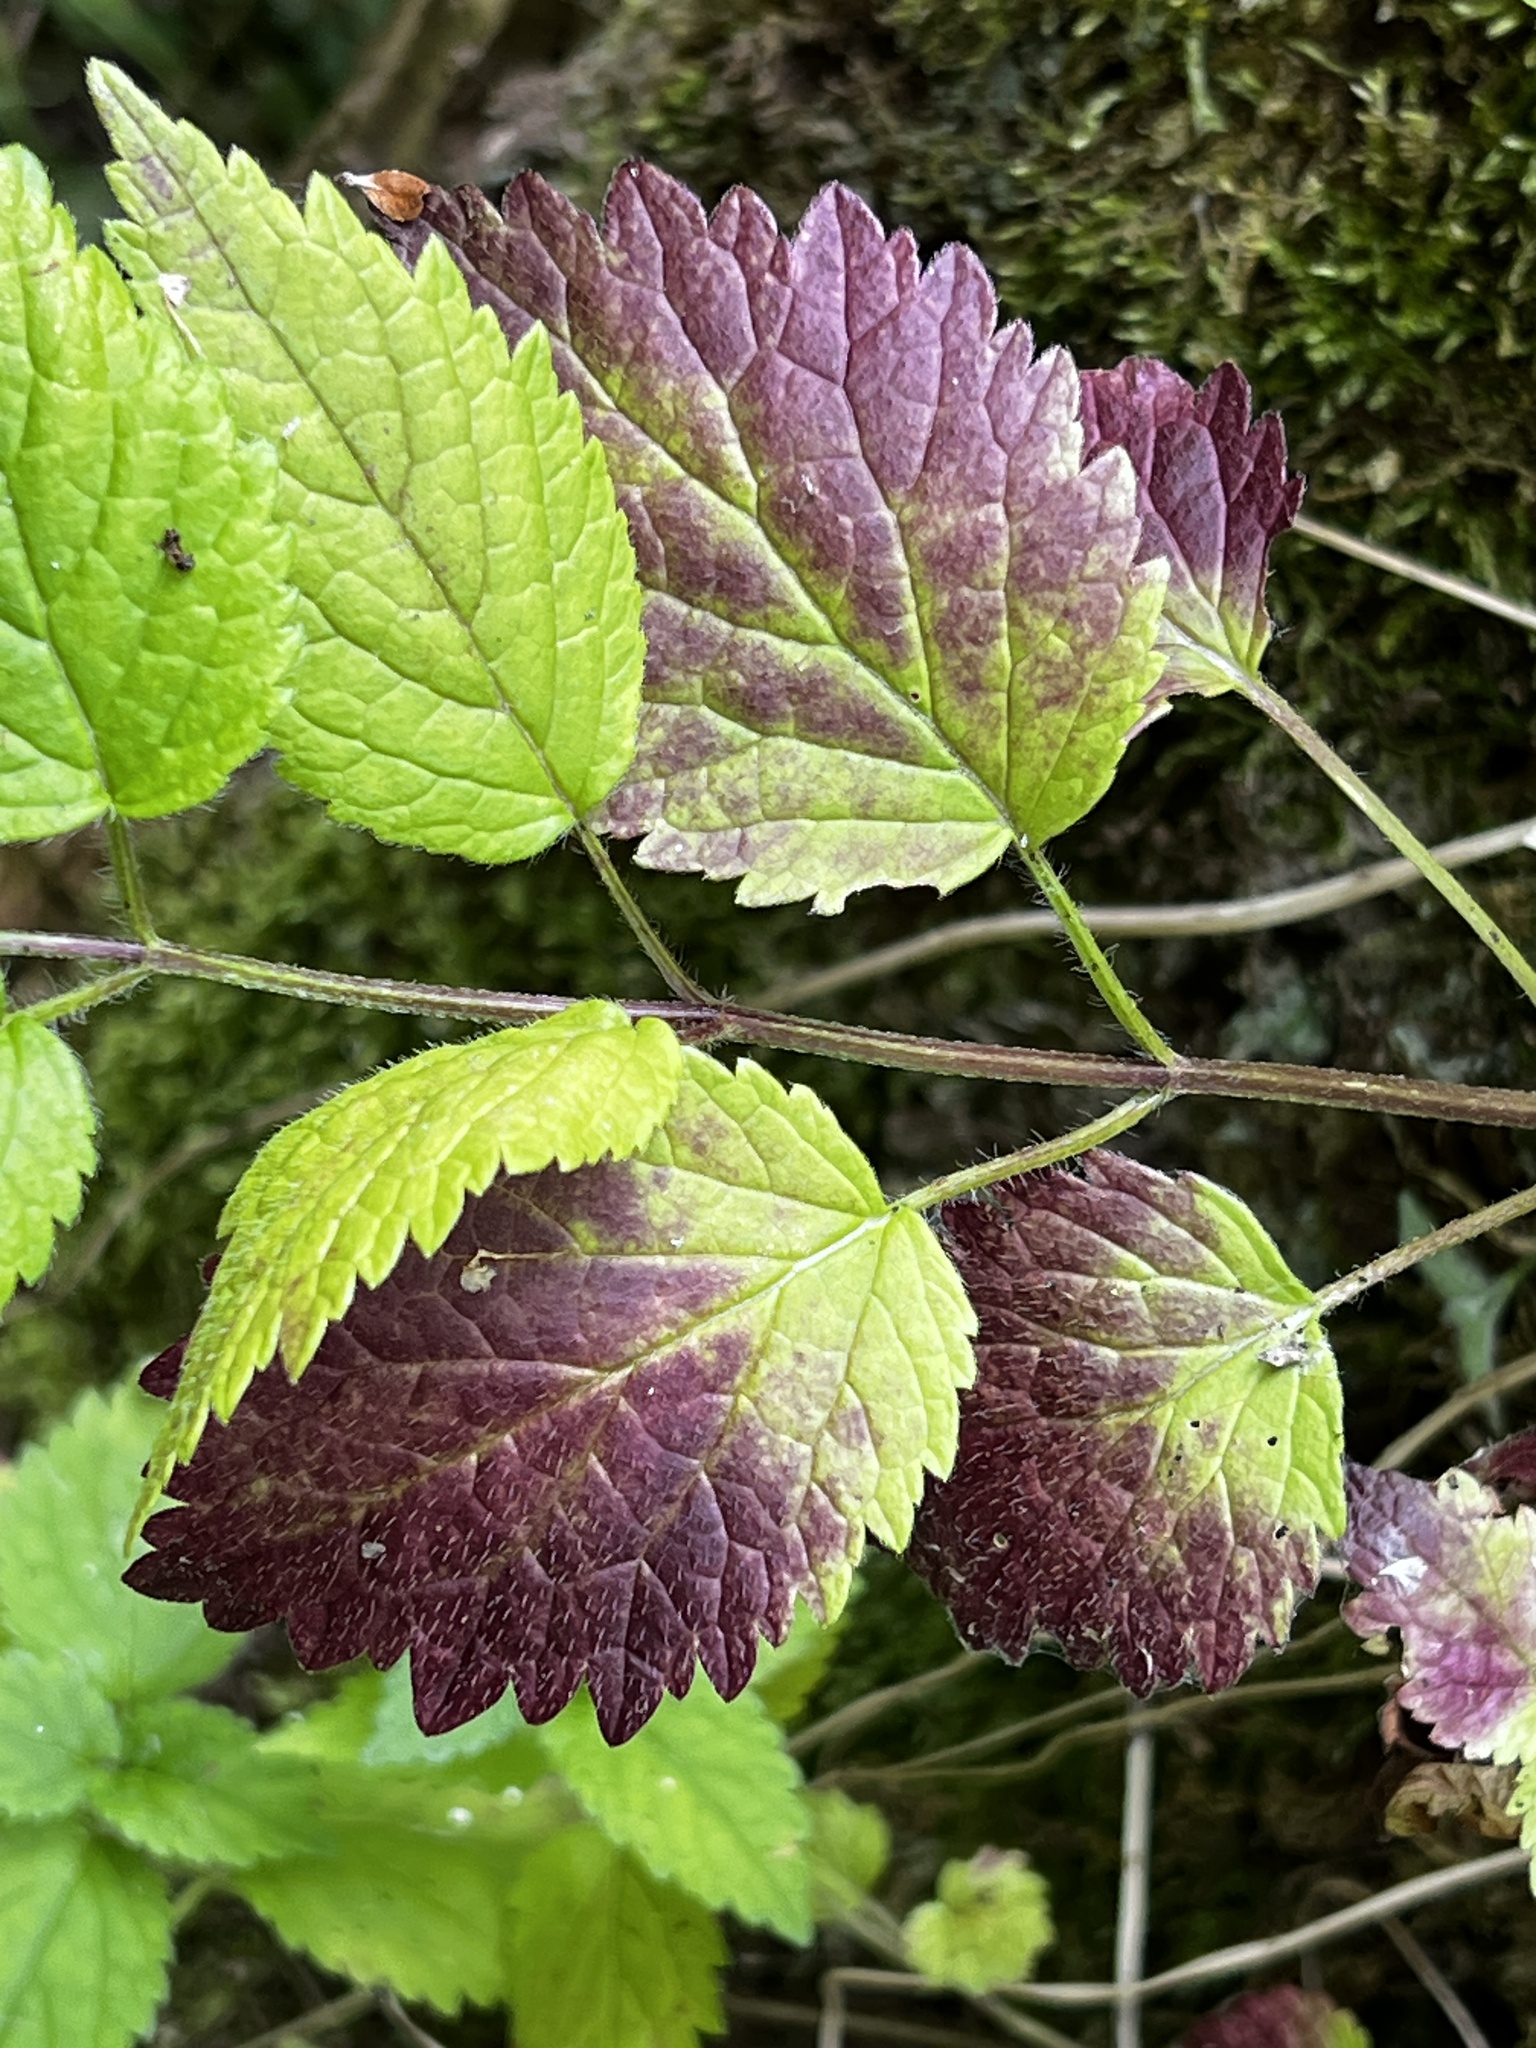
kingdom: Plantae
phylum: Tracheophyta
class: Magnoliopsida
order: Lamiales
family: Lamiaceae
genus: Lamium
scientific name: Lamium galeobdolon
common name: Yellow archangel
